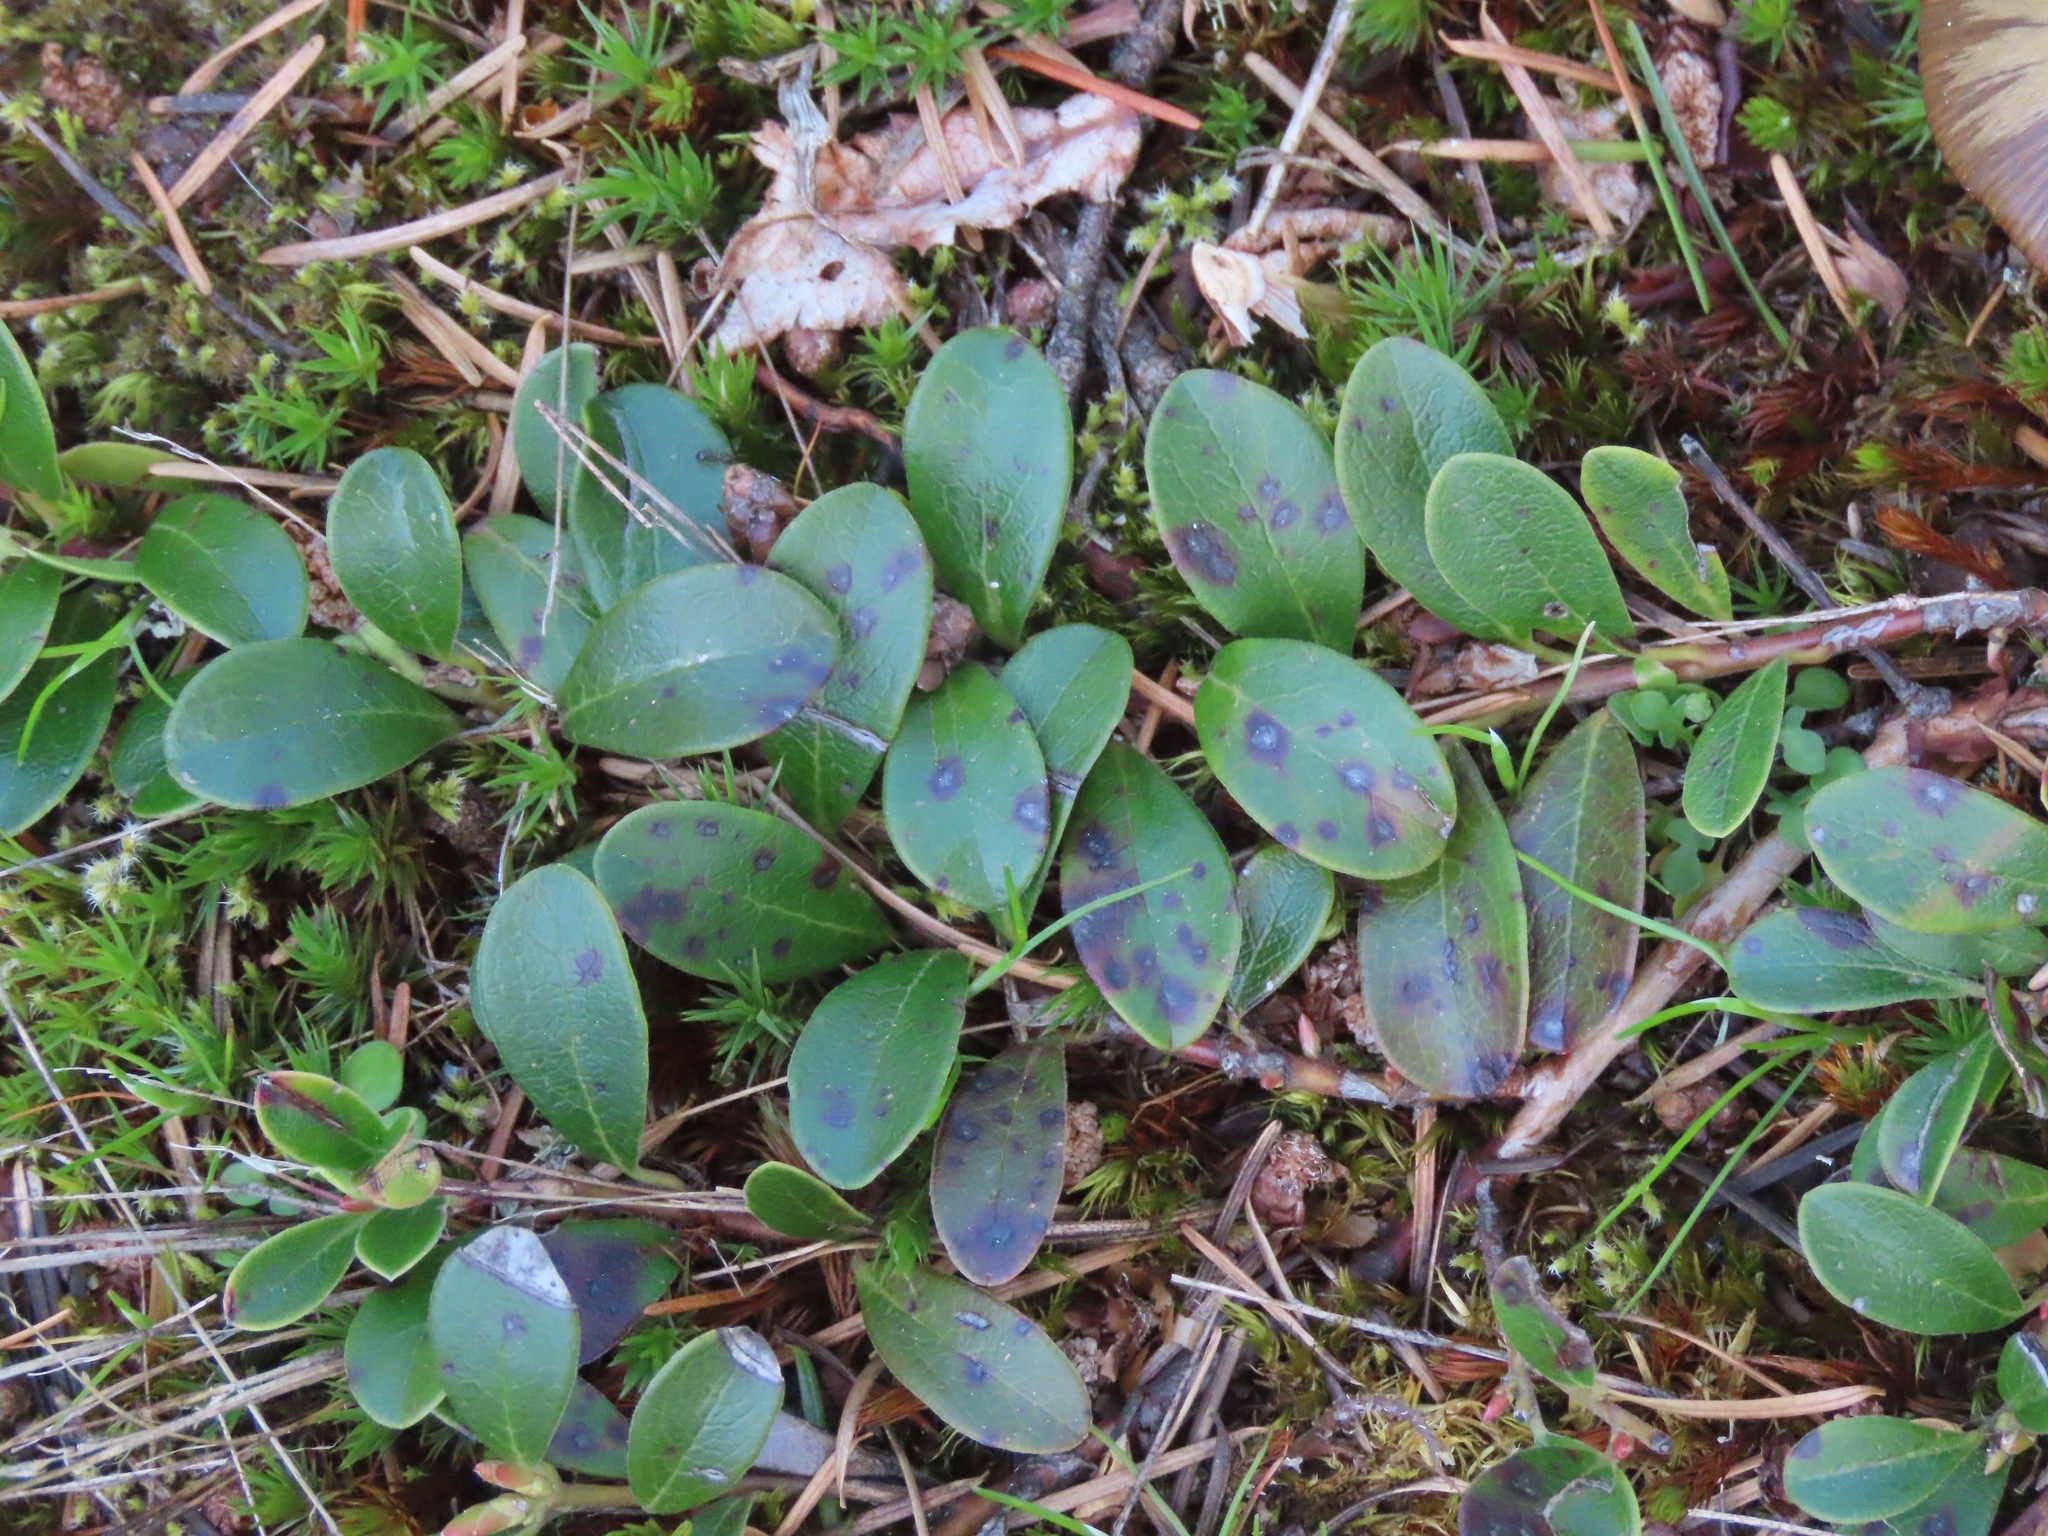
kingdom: Plantae
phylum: Tracheophyta
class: Magnoliopsida
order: Ericales
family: Ericaceae
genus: Arctostaphylos
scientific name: Arctostaphylos uva-ursi
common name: Bearberry
